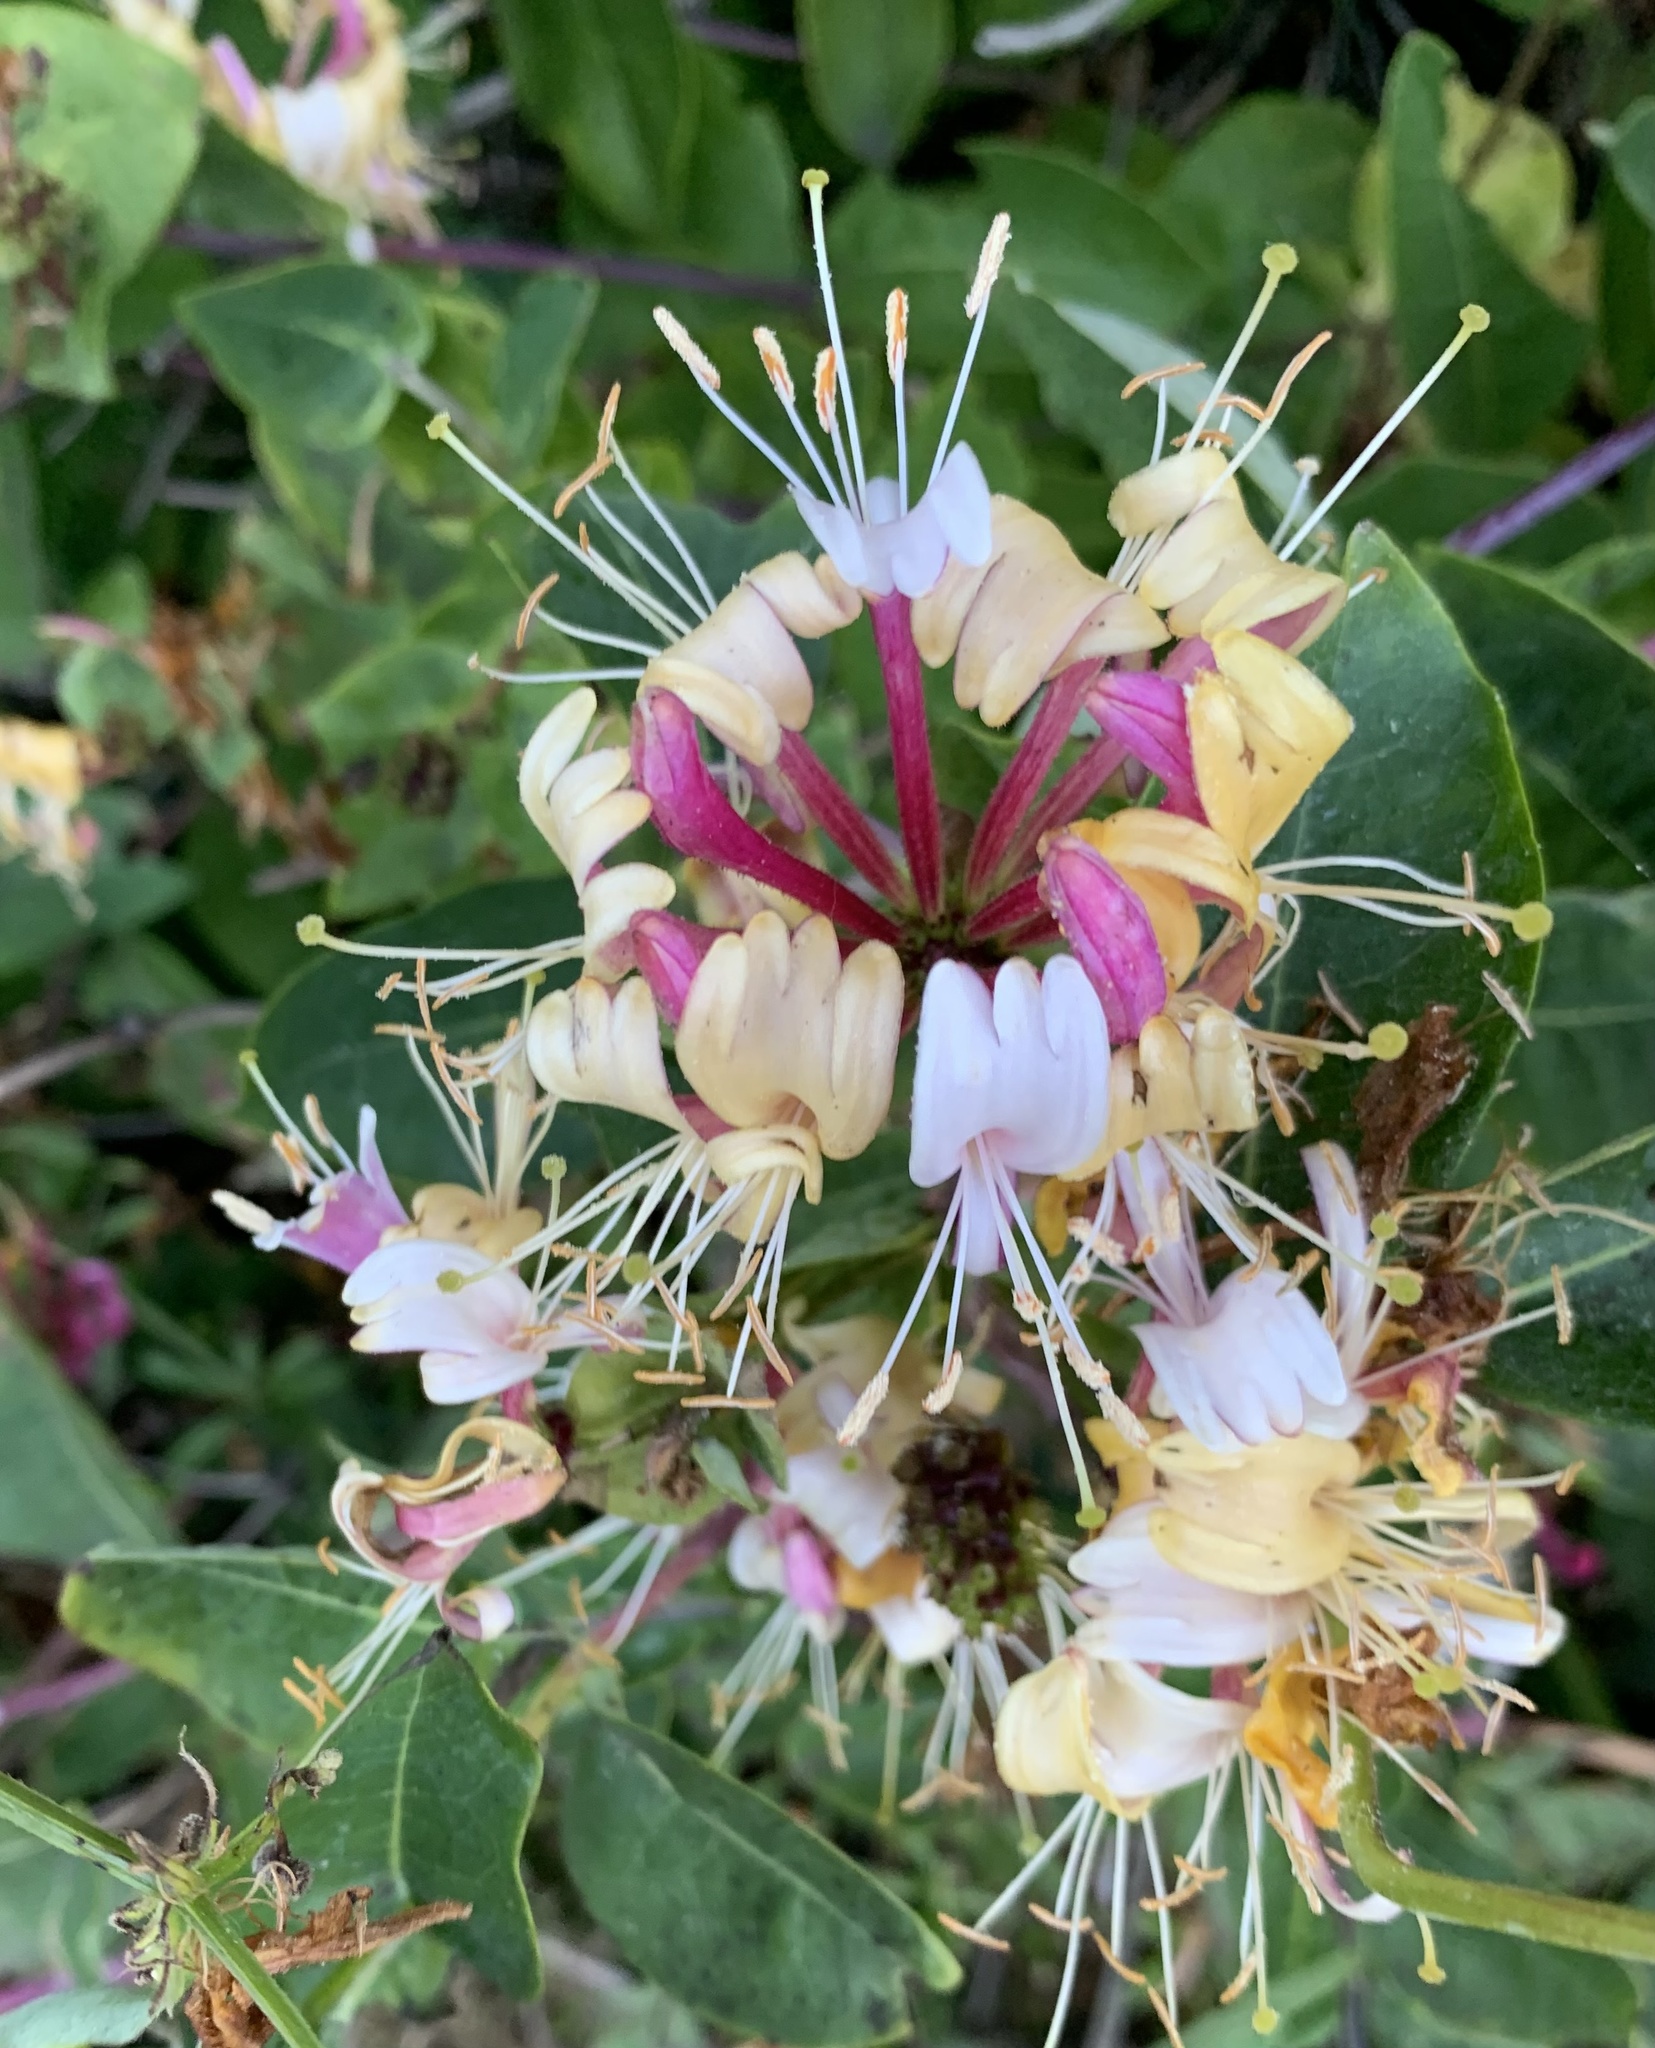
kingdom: Plantae
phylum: Tracheophyta
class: Magnoliopsida
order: Dipsacales
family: Caprifoliaceae
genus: Lonicera
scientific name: Lonicera periclymenum
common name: European honeysuckle
